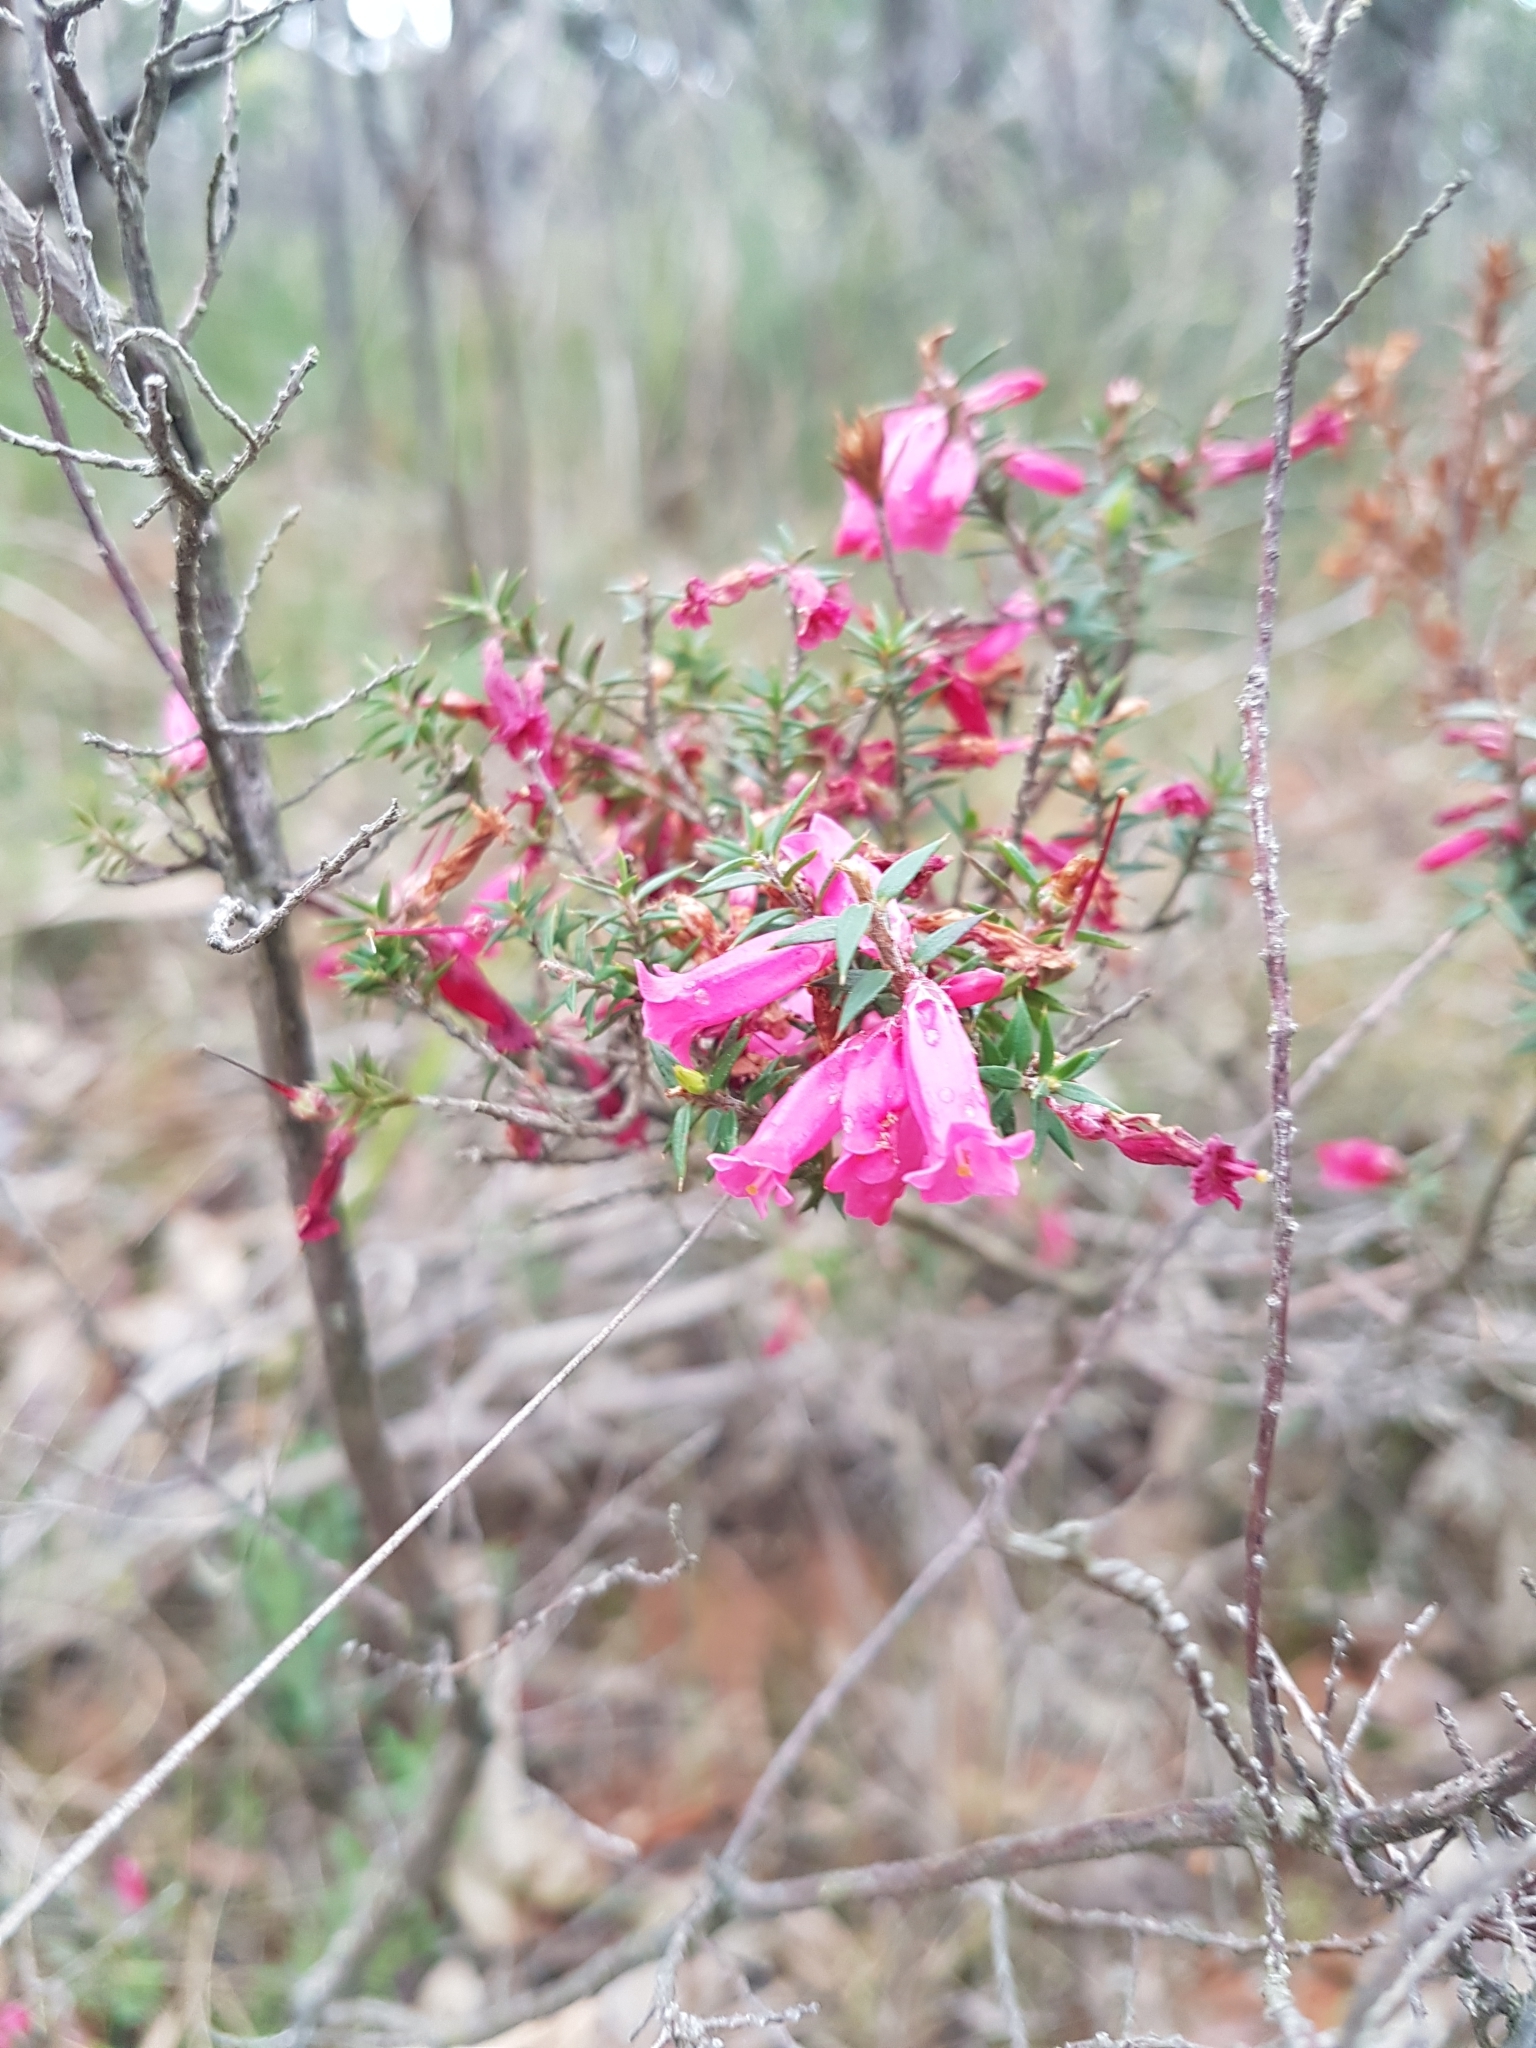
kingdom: Plantae
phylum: Tracheophyta
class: Magnoliopsida
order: Ericales
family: Ericaceae
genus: Epacris
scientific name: Epacris impressa
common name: Common-heath
